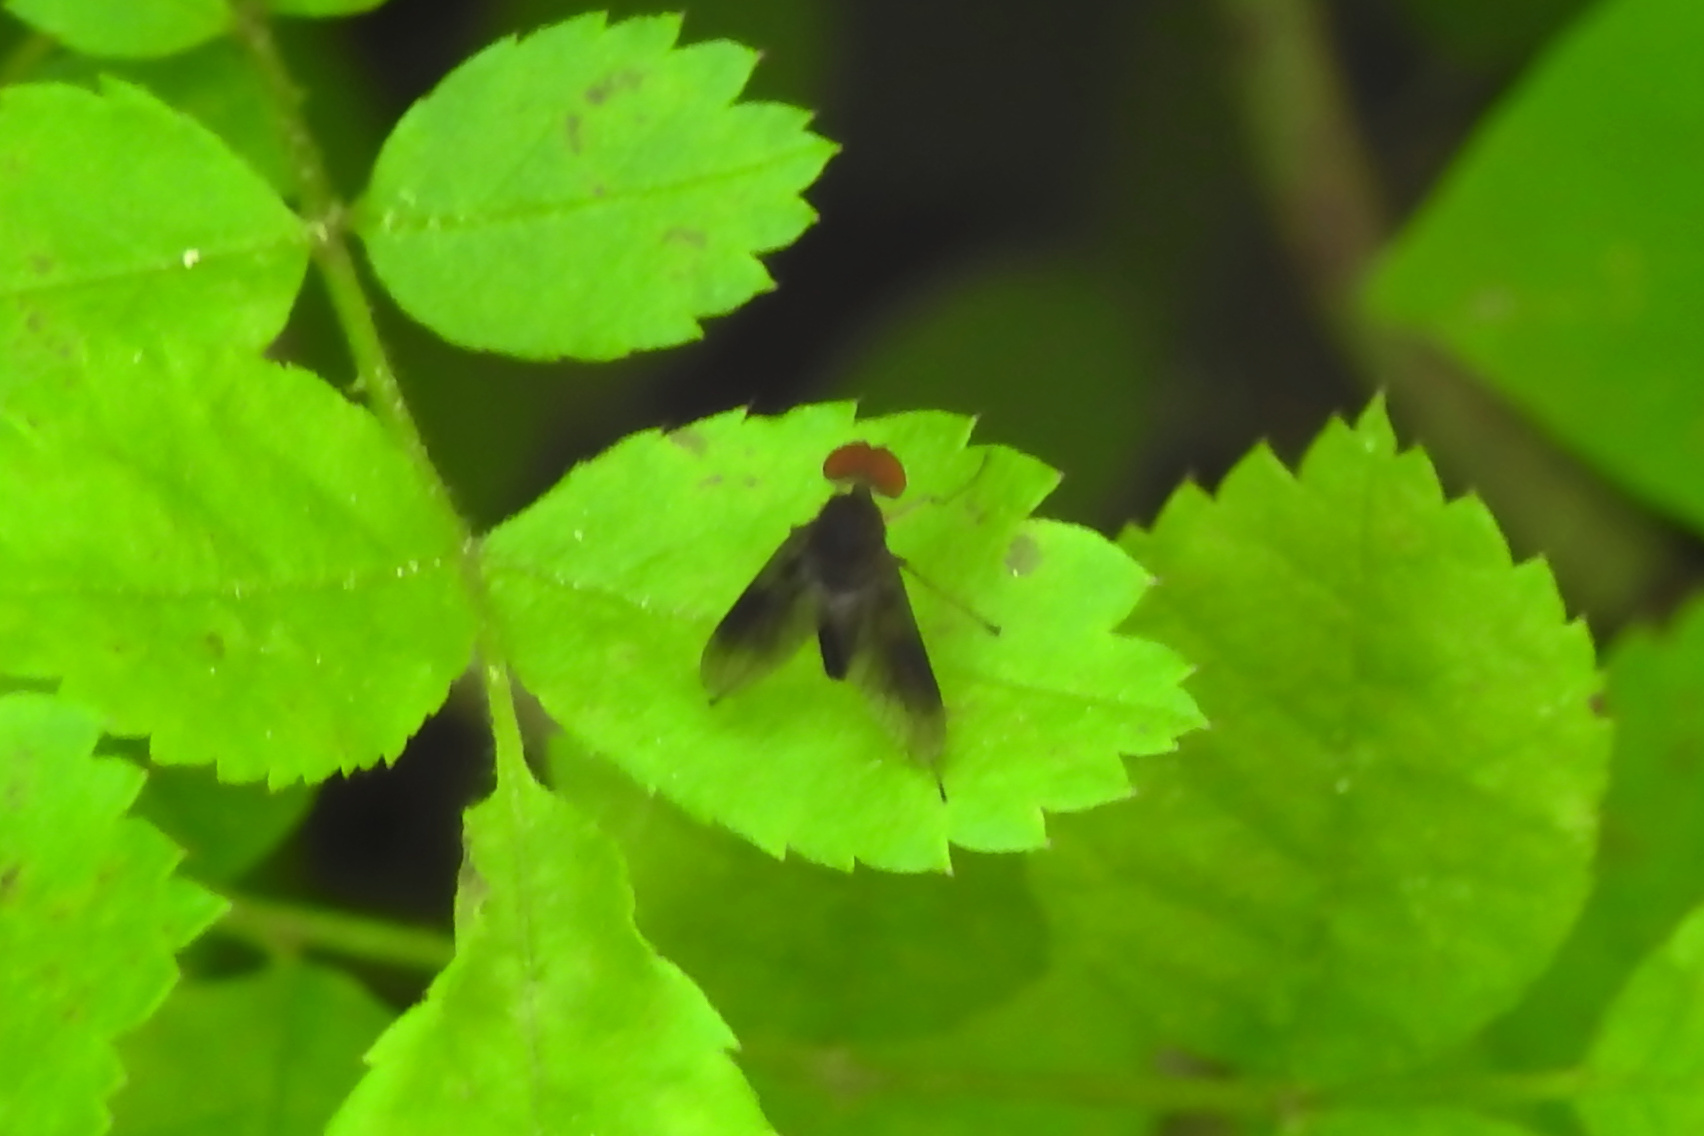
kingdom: Animalia
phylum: Arthropoda
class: Insecta
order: Diptera
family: Rhagionidae
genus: Chrysopilus
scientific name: Chrysopilus quadratus
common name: Quadrate snipe fly
